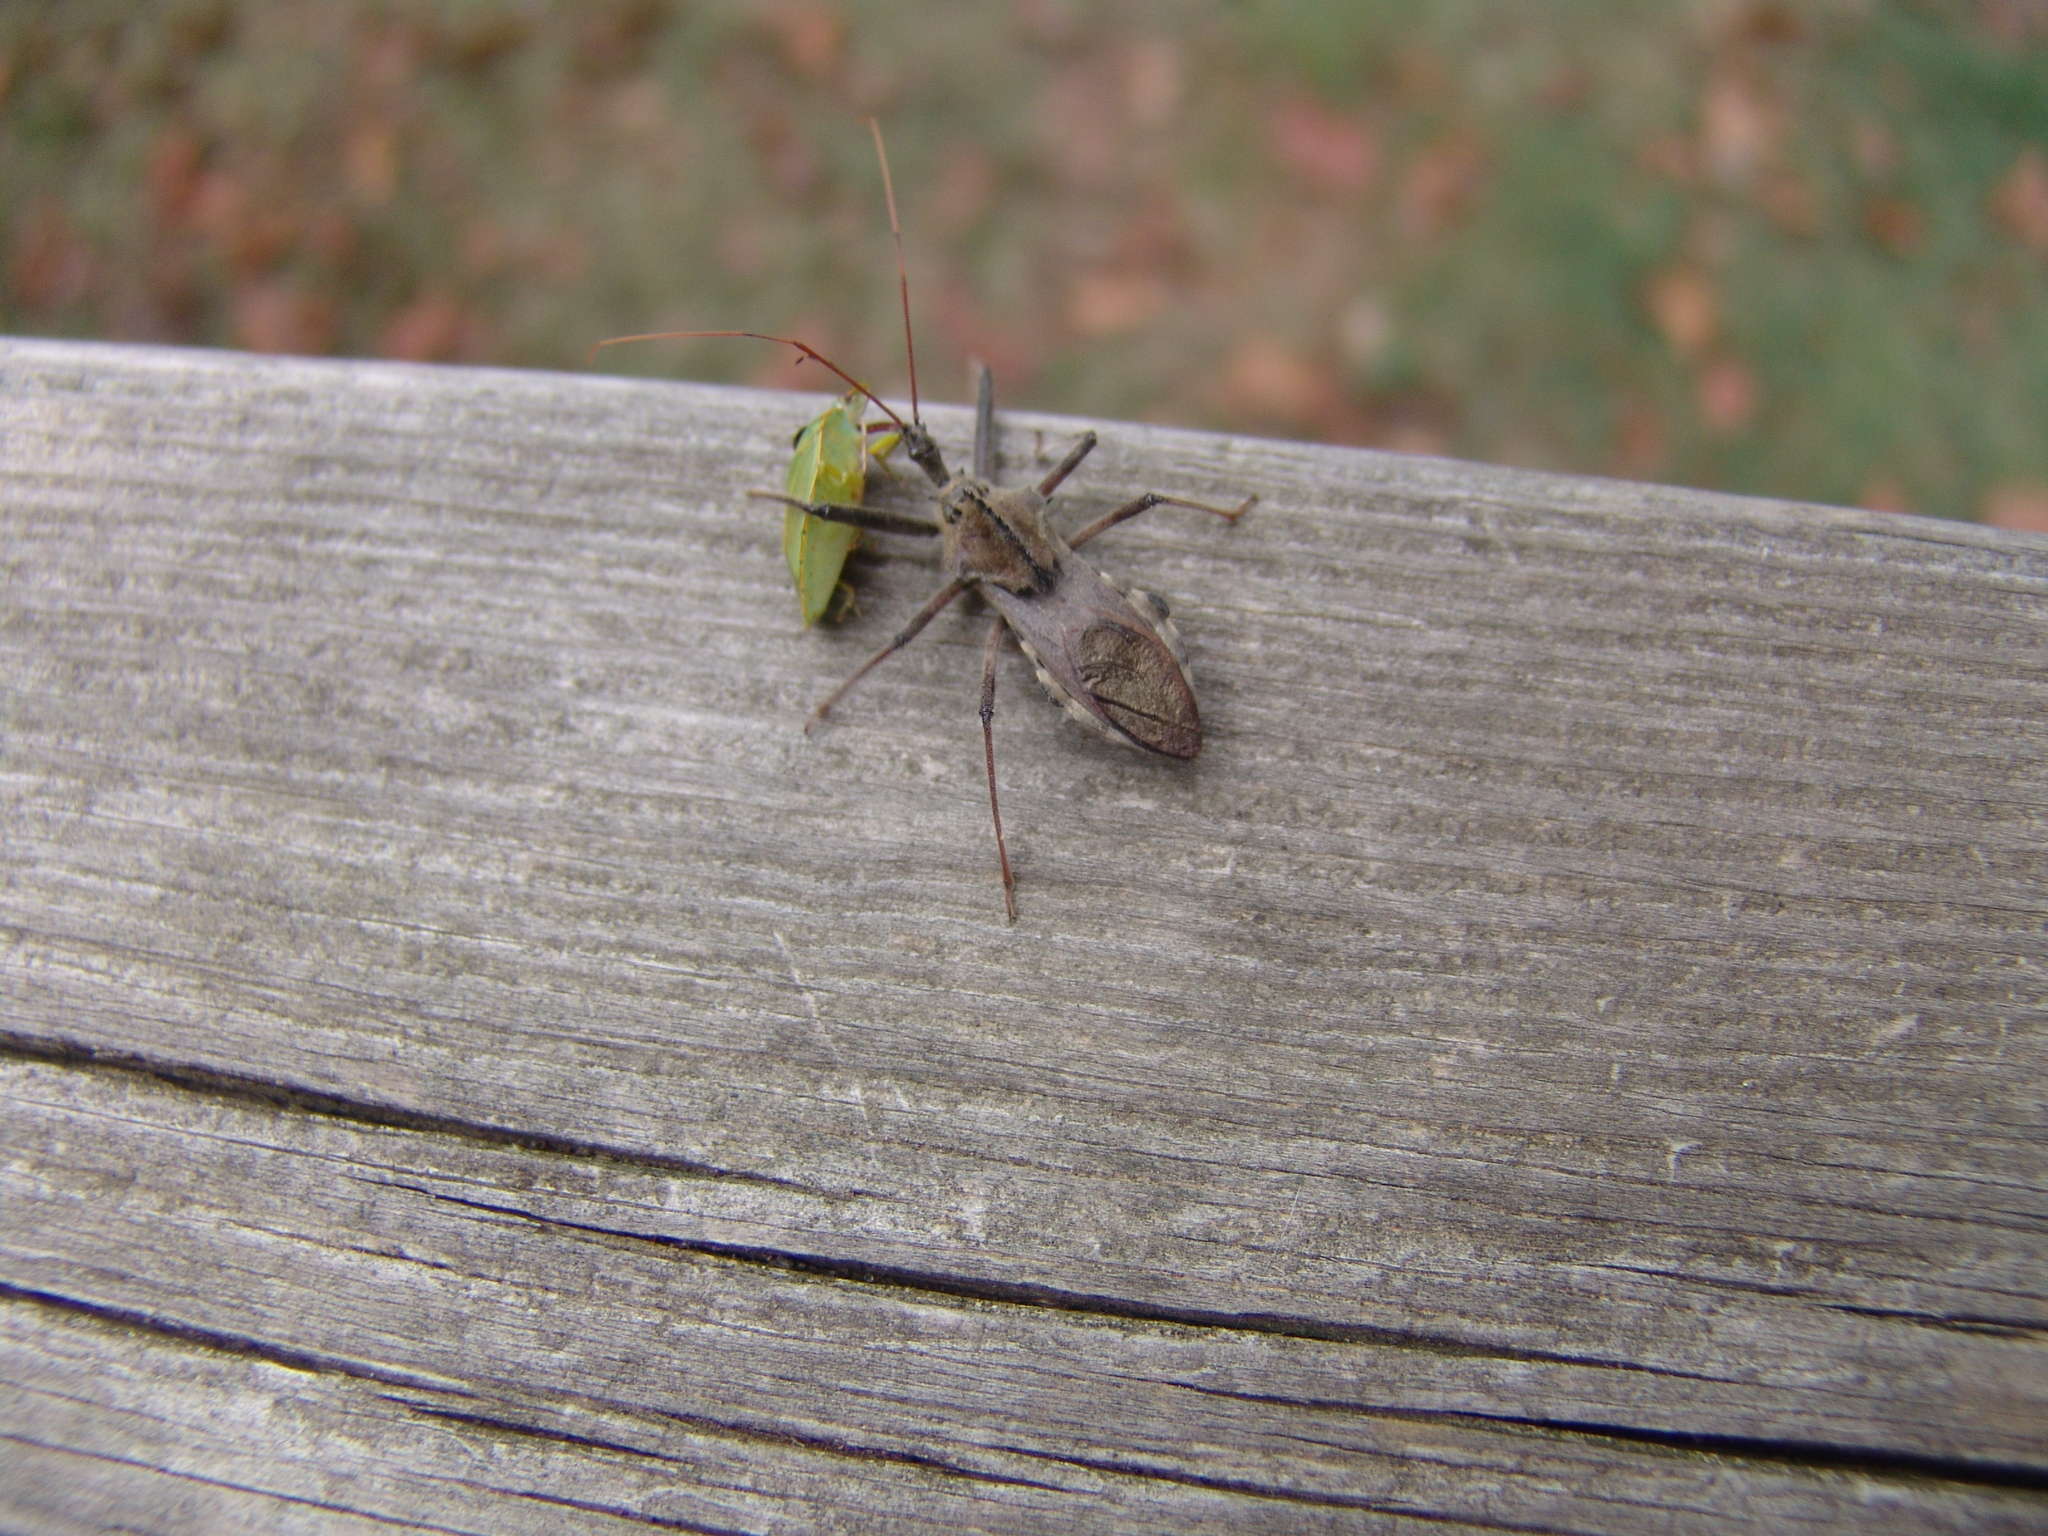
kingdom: Animalia
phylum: Arthropoda
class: Insecta
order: Hemiptera
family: Reduviidae
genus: Arilus
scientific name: Arilus cristatus
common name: North american wheel bug
